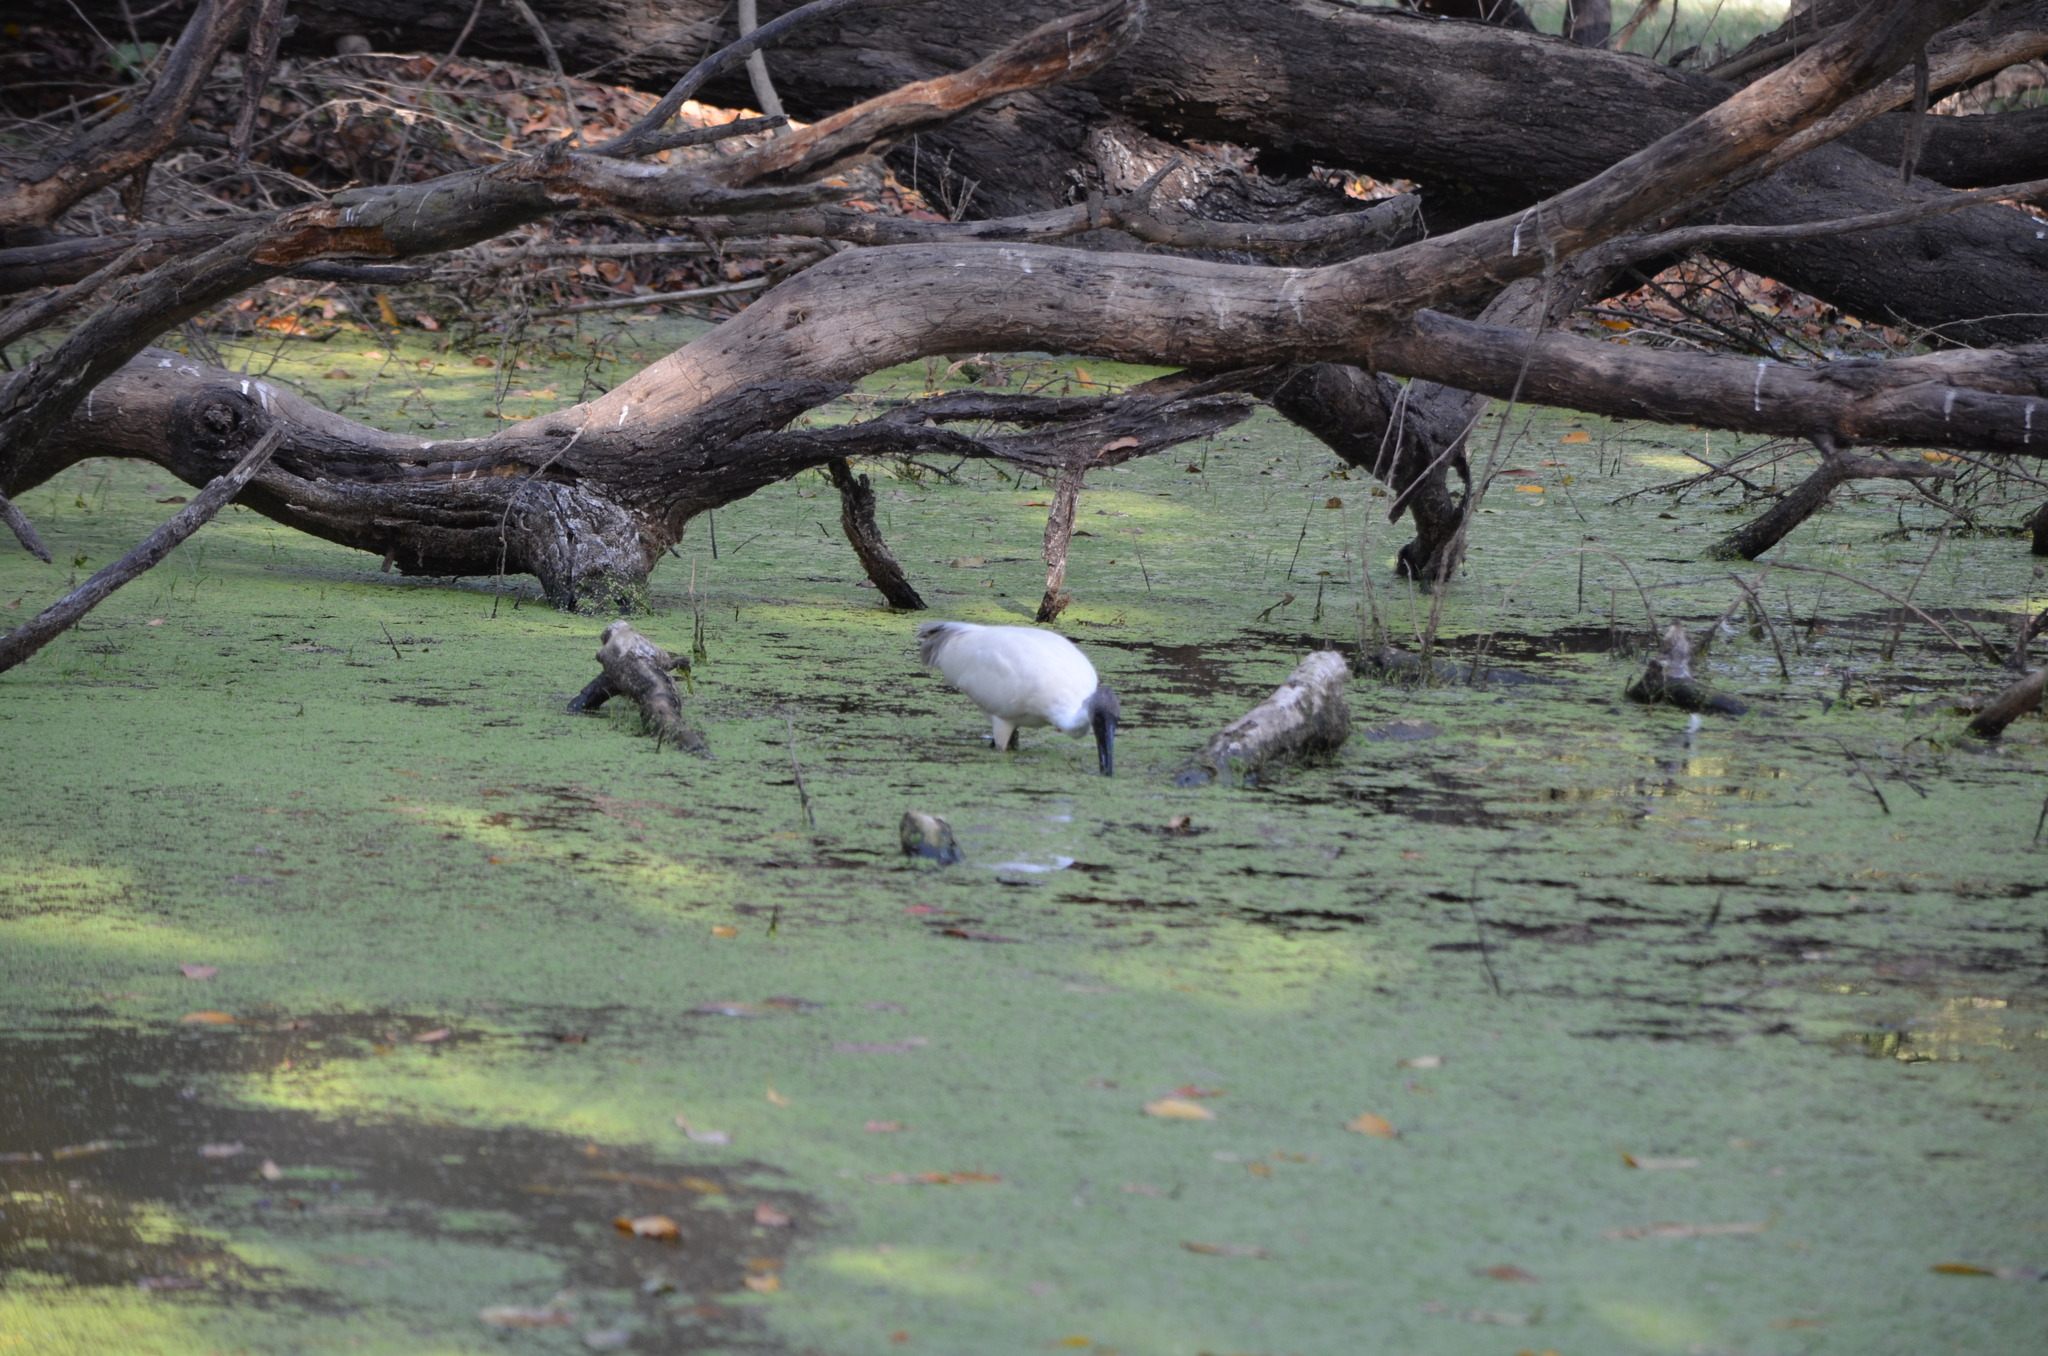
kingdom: Animalia
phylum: Chordata
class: Aves
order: Pelecaniformes
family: Threskiornithidae
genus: Threskiornis
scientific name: Threskiornis melanocephalus
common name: Black-headed ibis
